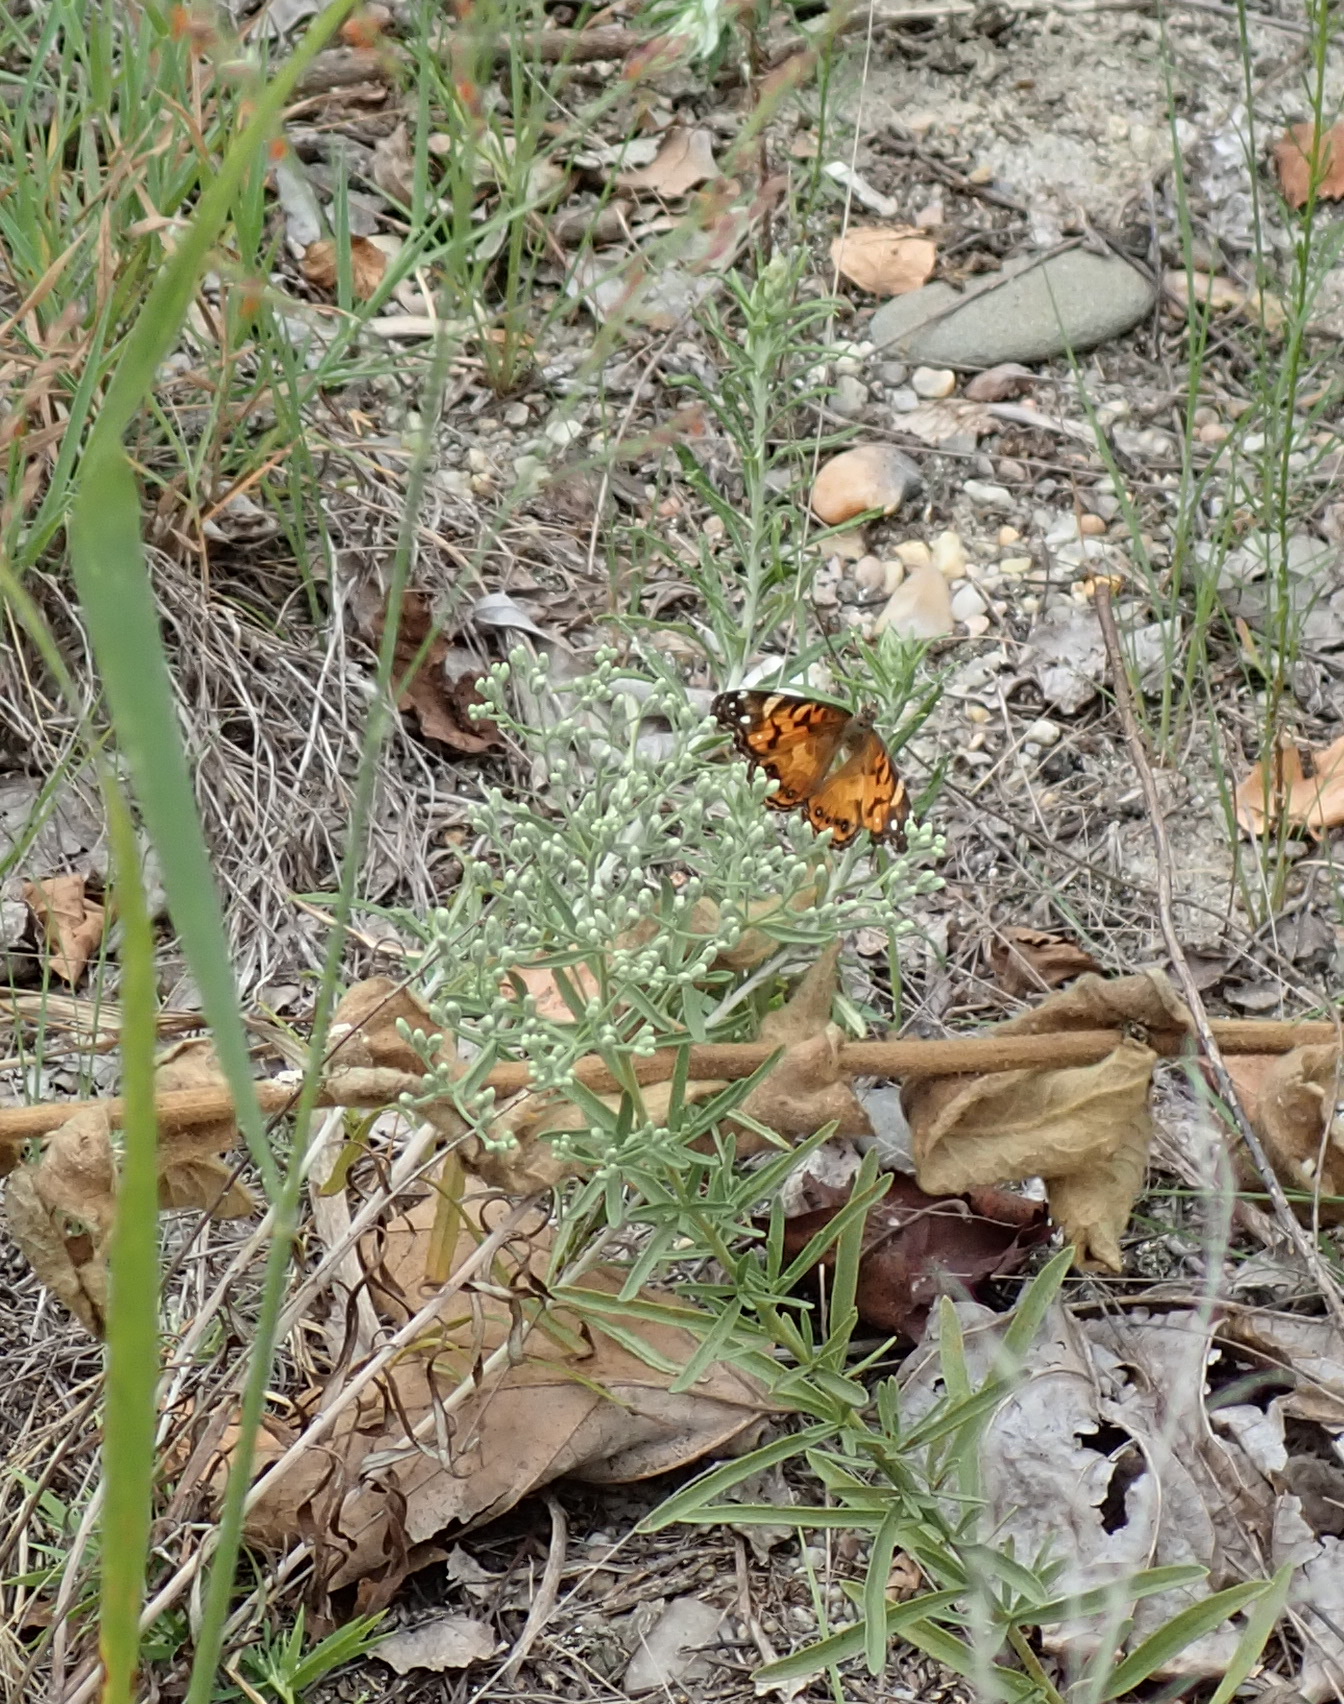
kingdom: Animalia
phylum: Arthropoda
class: Insecta
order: Lepidoptera
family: Nymphalidae
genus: Vanessa
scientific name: Vanessa virginiensis
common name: American lady
